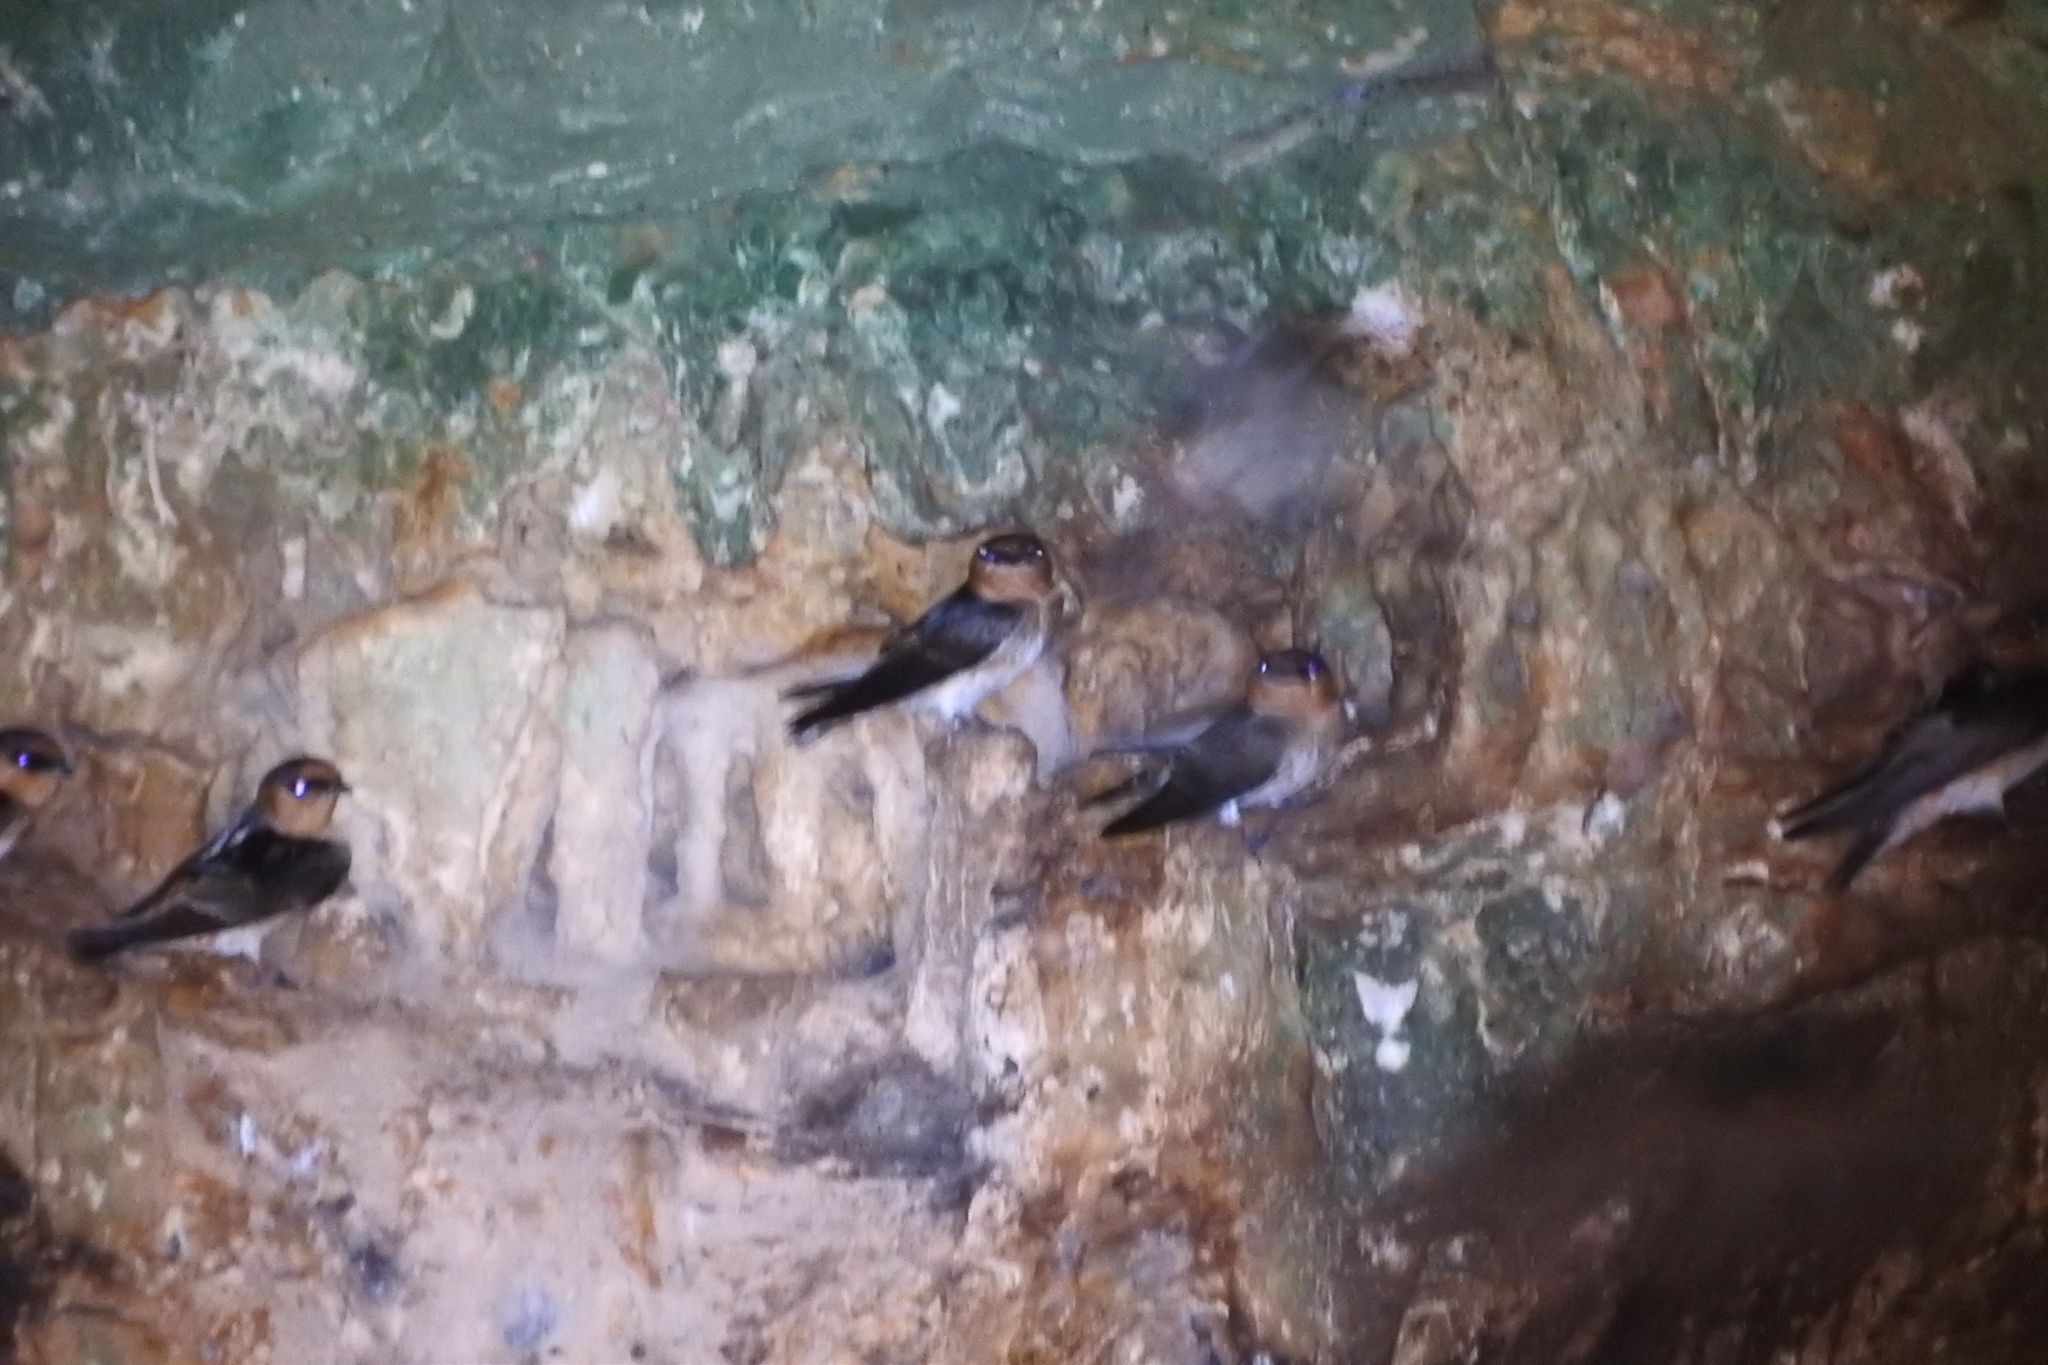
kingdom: Animalia
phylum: Chordata
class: Aves
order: Passeriformes
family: Hirundinidae
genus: Petrochelidon
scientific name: Petrochelidon fulva
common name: Cave swallow
